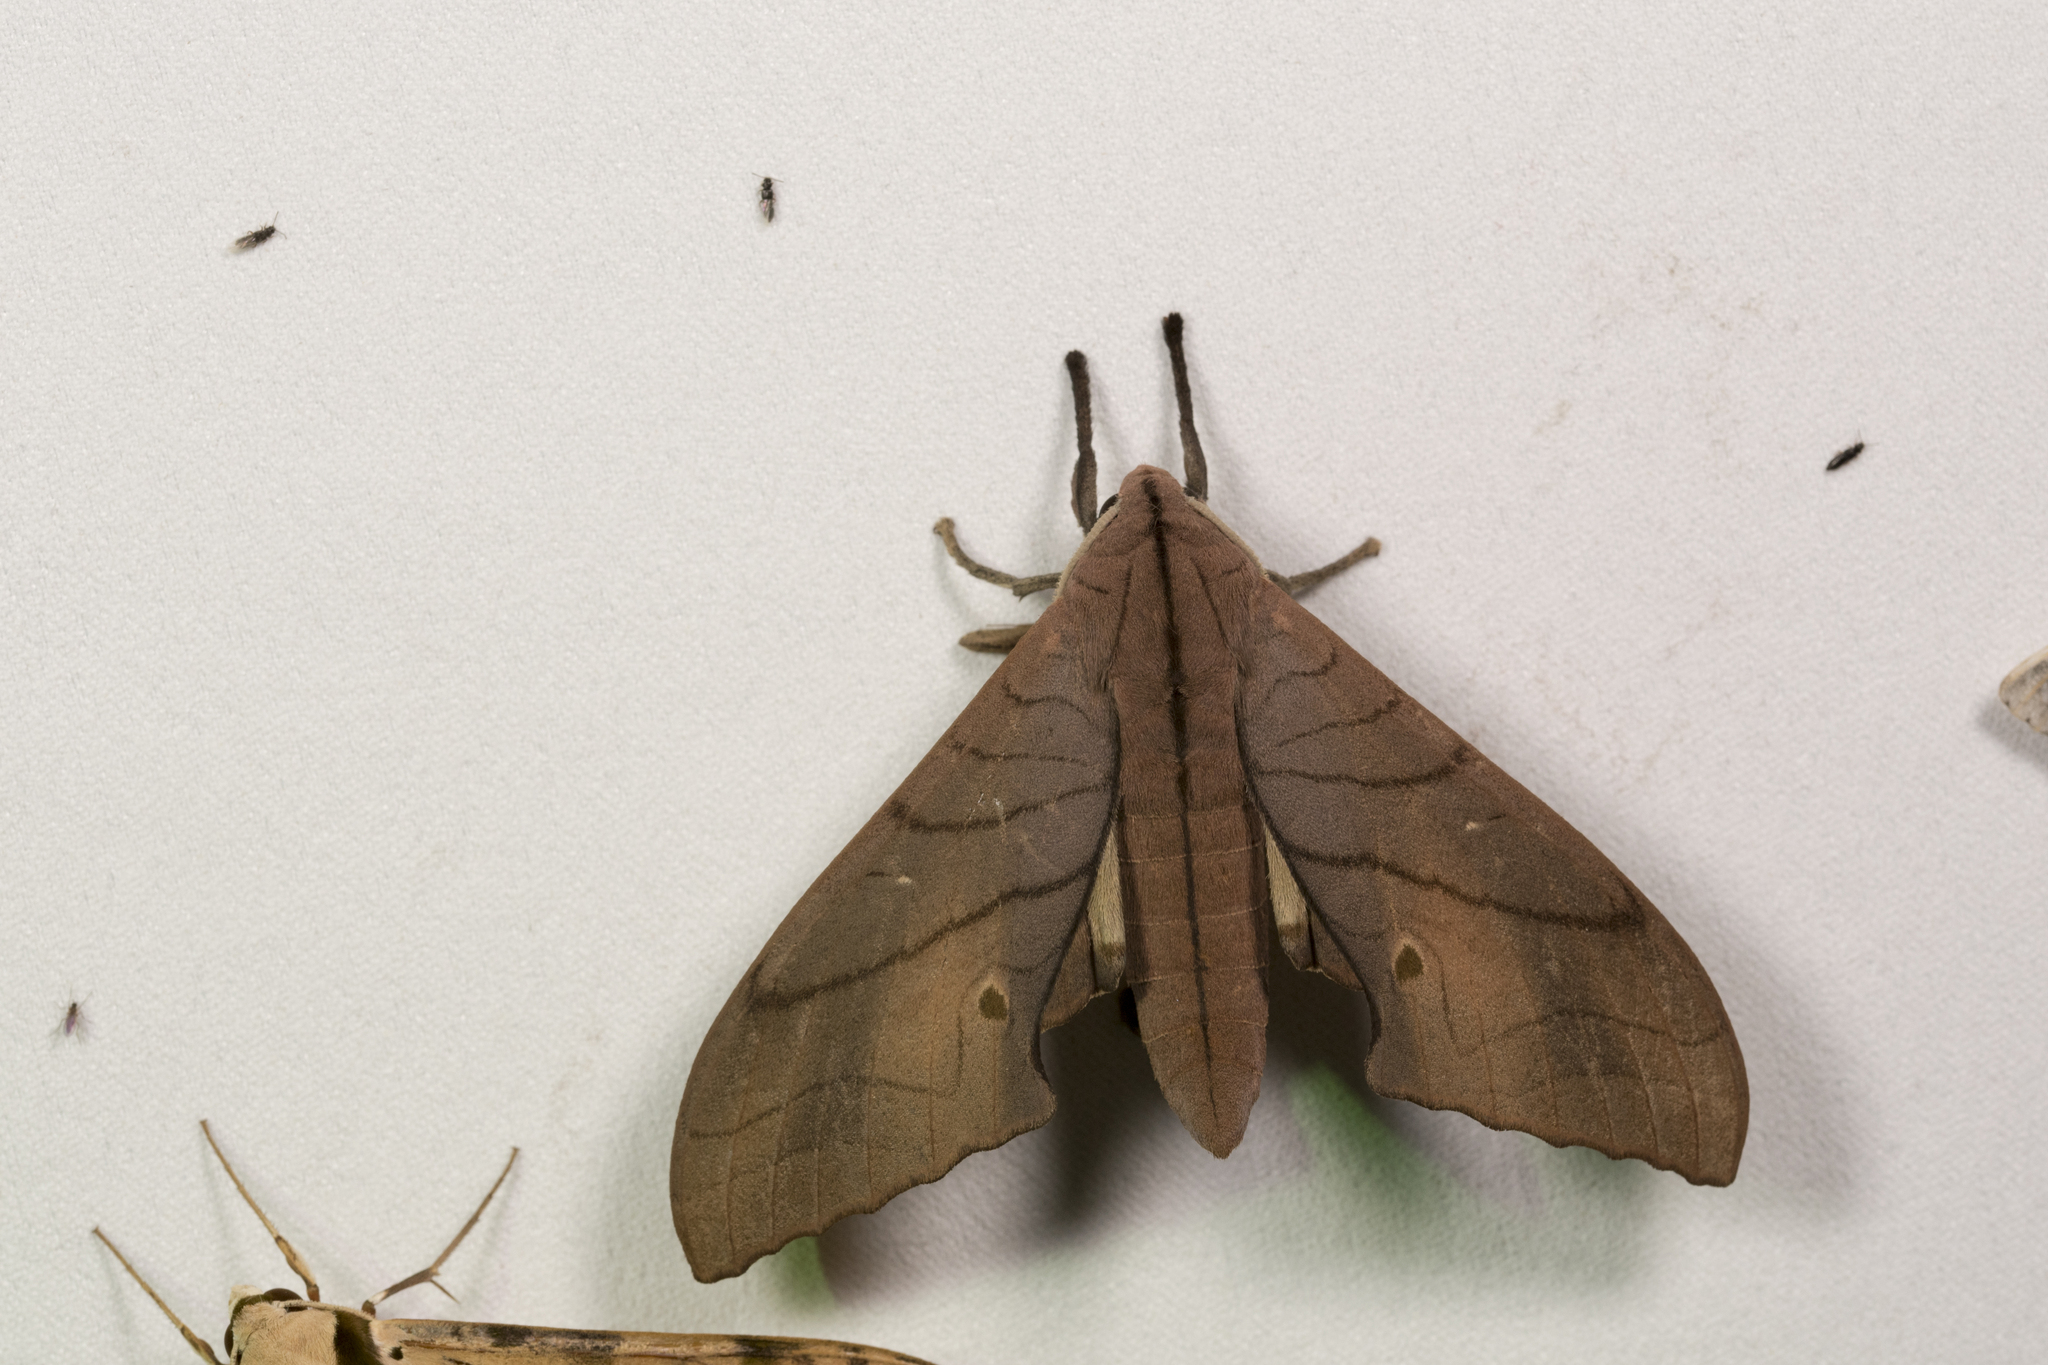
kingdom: Animalia
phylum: Arthropoda
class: Insecta
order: Lepidoptera
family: Sphingidae
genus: Marumba
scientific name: Marumba cristata
